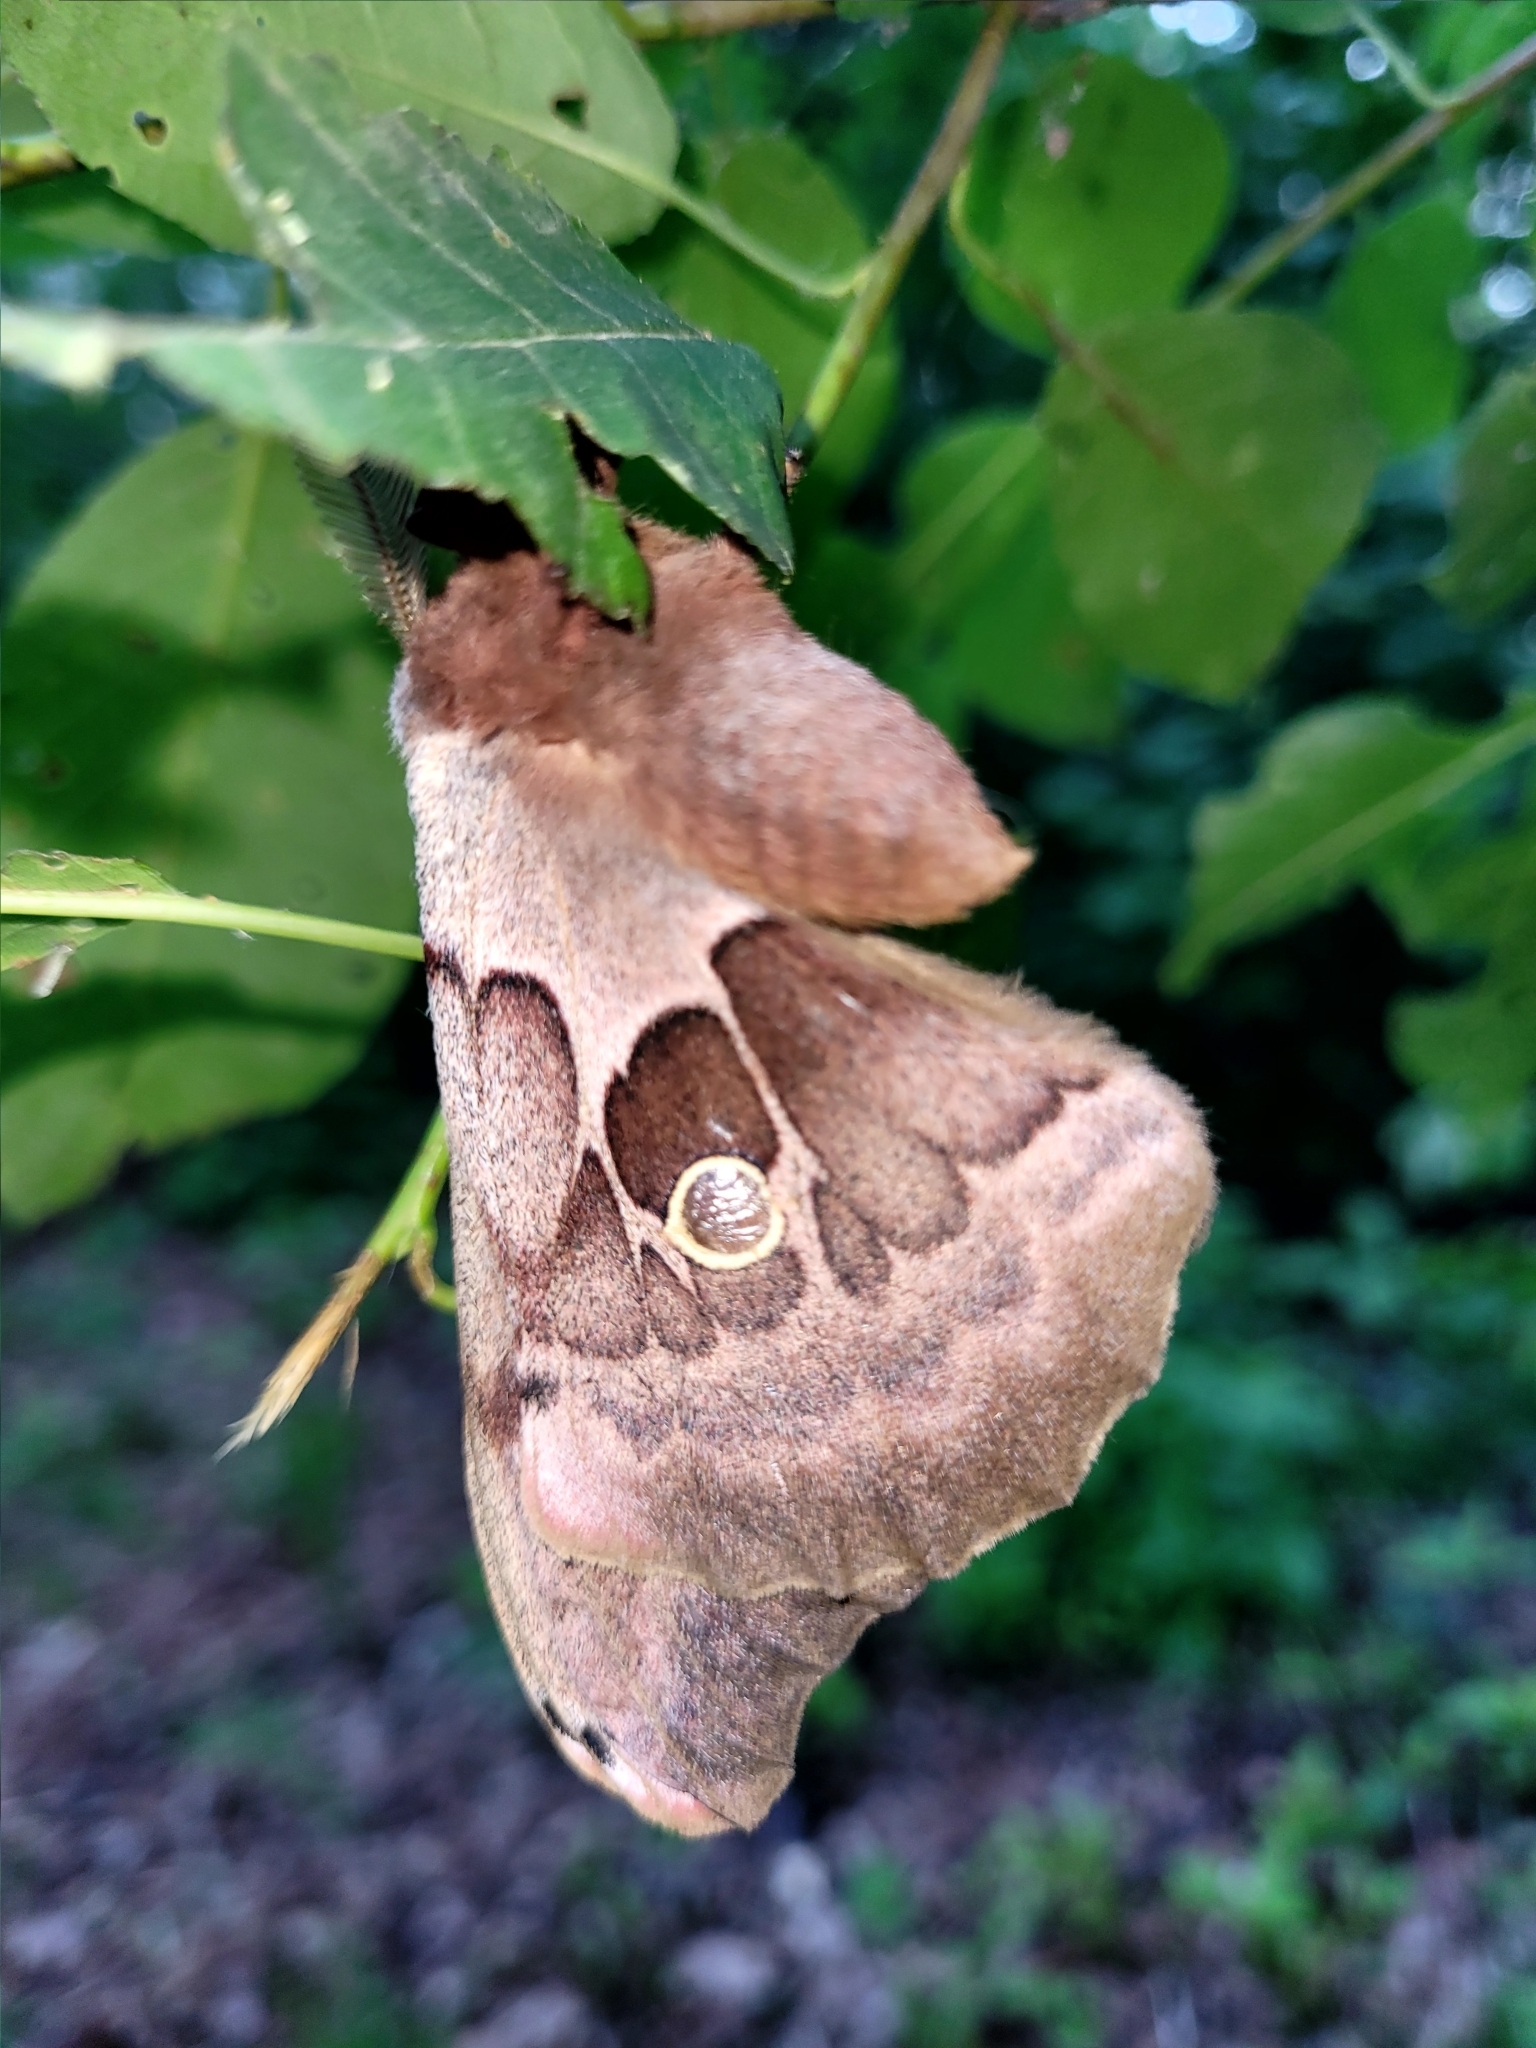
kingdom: Animalia
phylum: Arthropoda
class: Insecta
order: Lepidoptera
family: Saturniidae
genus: Antheraea
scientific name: Antheraea polyphemus
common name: Polyphemus moth
